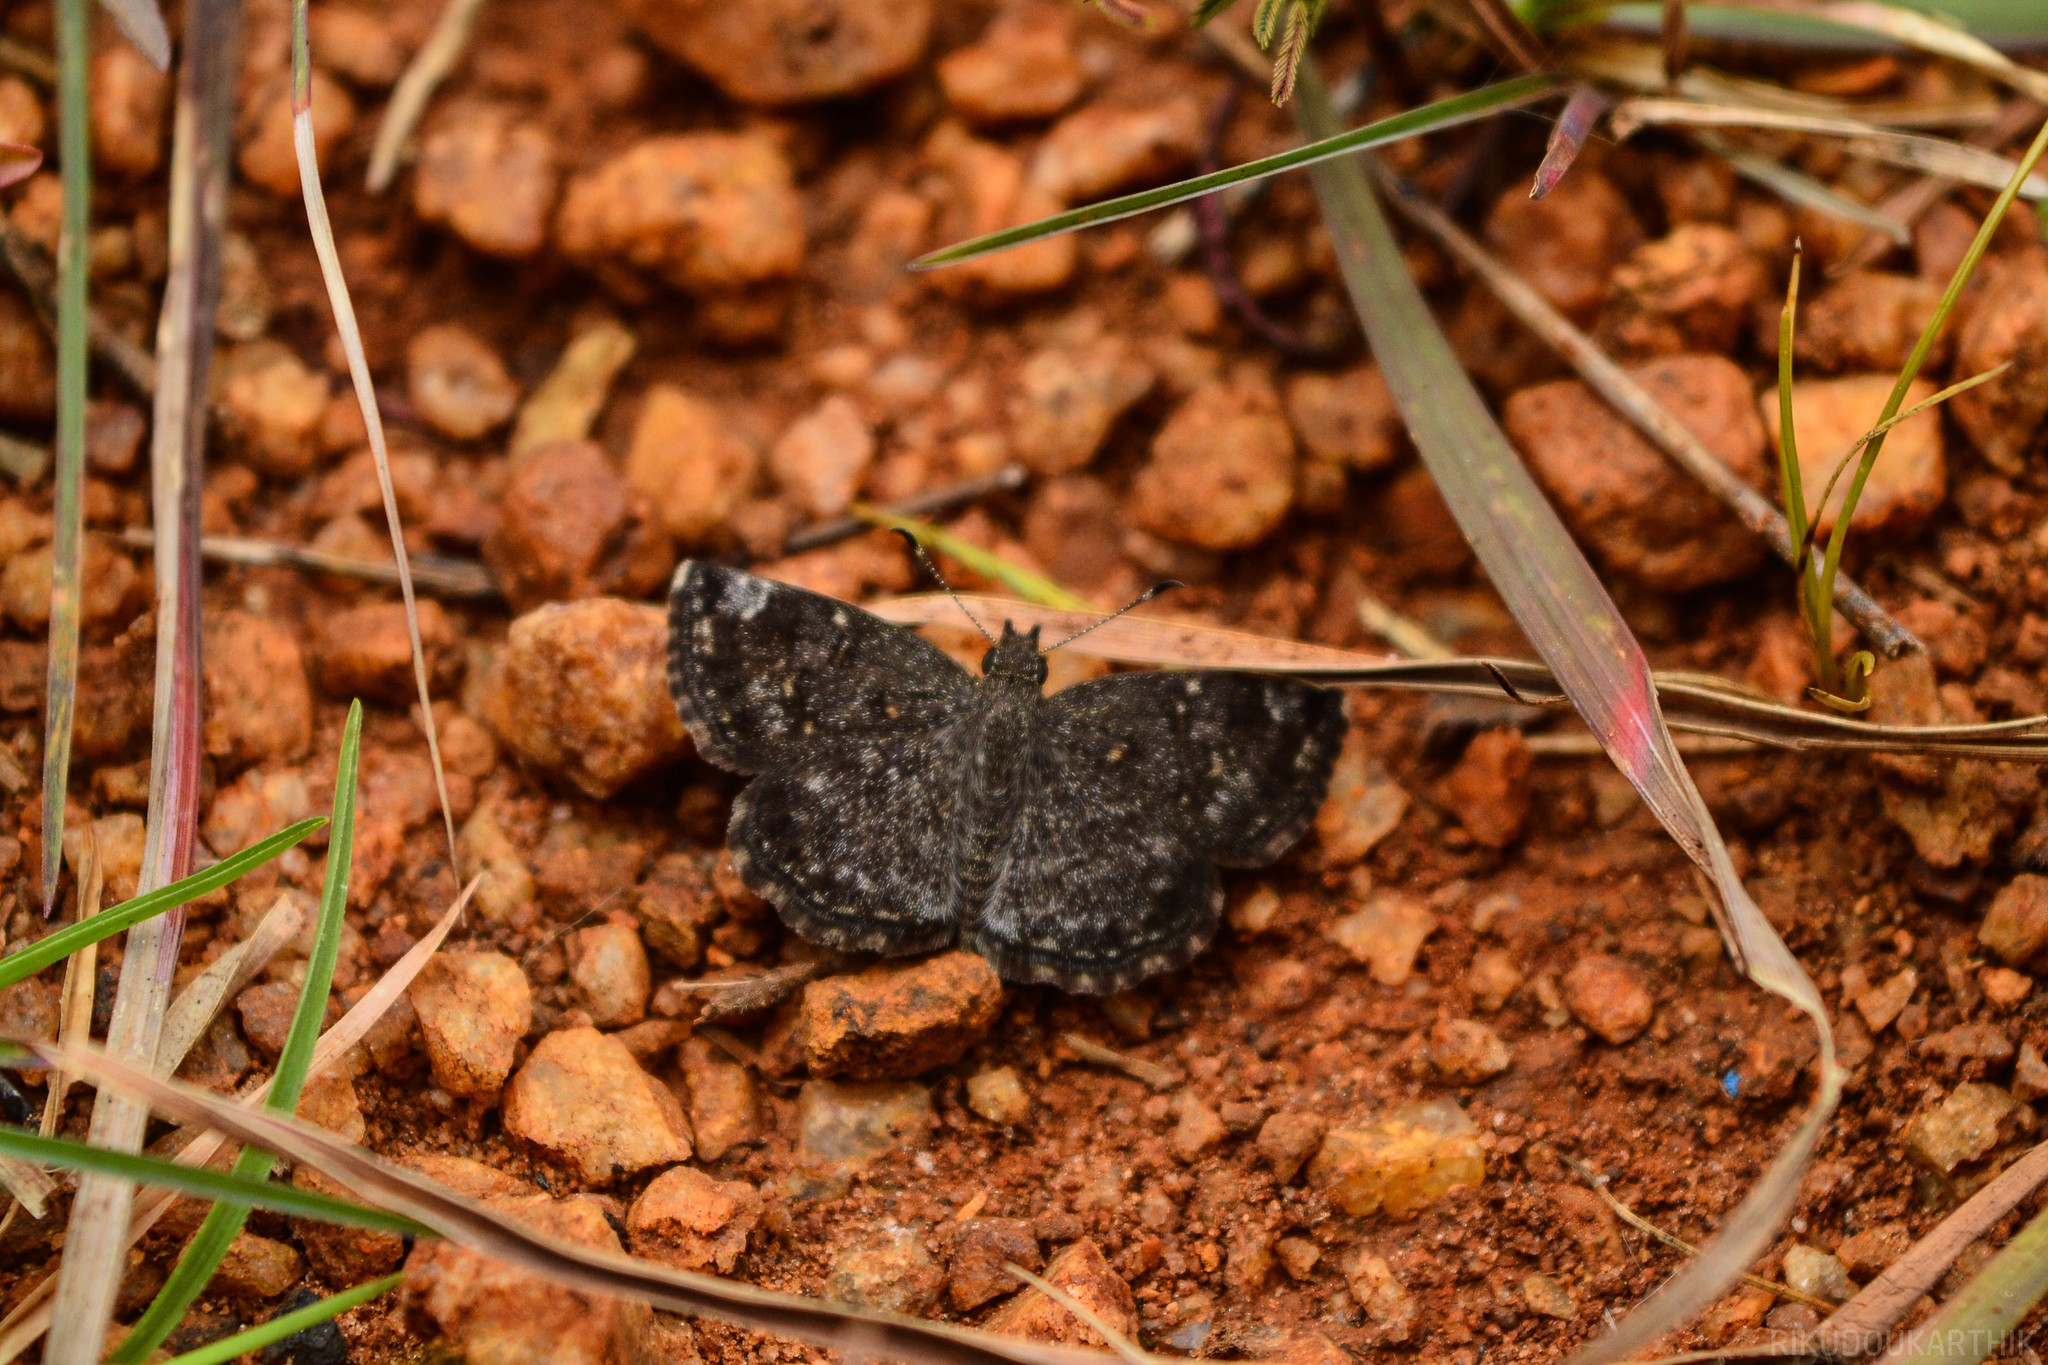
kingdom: Animalia
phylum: Arthropoda
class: Insecta
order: Lepidoptera
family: Hesperiidae
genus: Sarangesa
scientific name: Sarangesa purendra
